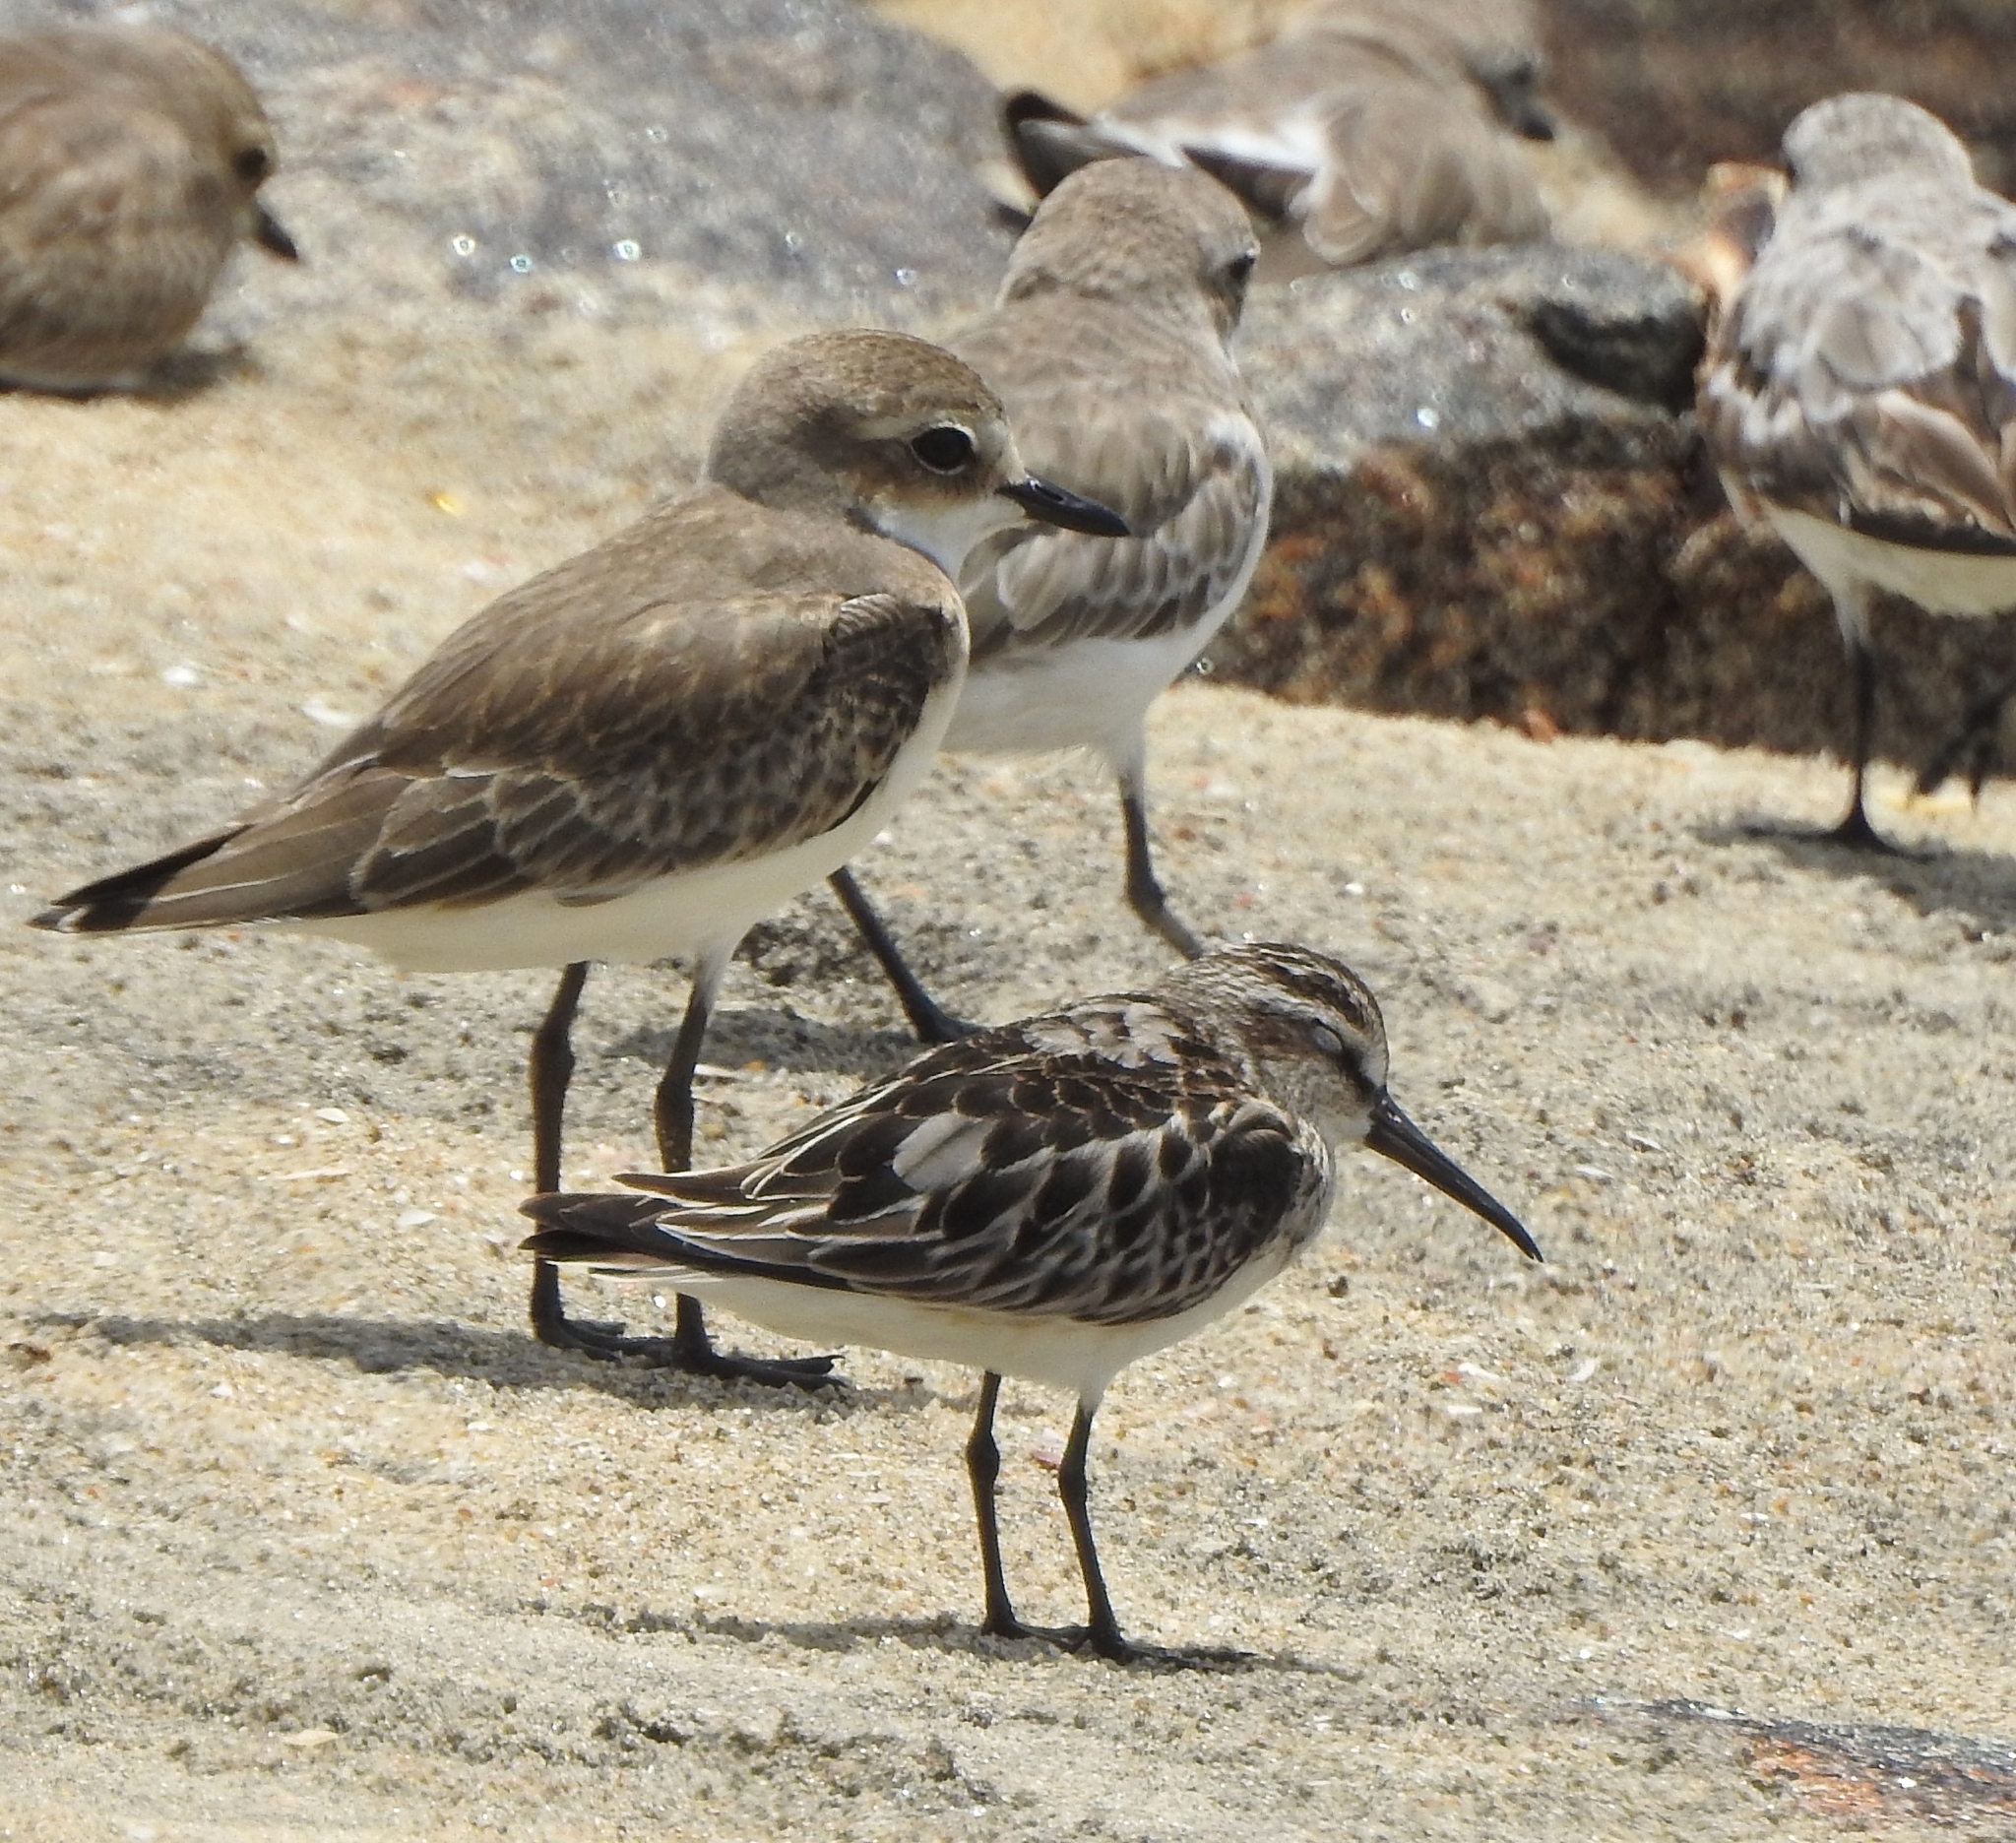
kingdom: Animalia
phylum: Chordata
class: Aves
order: Charadriiformes
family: Scolopacidae
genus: Calidris
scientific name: Calidris falcinellus
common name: Broad-billed sandpiper
